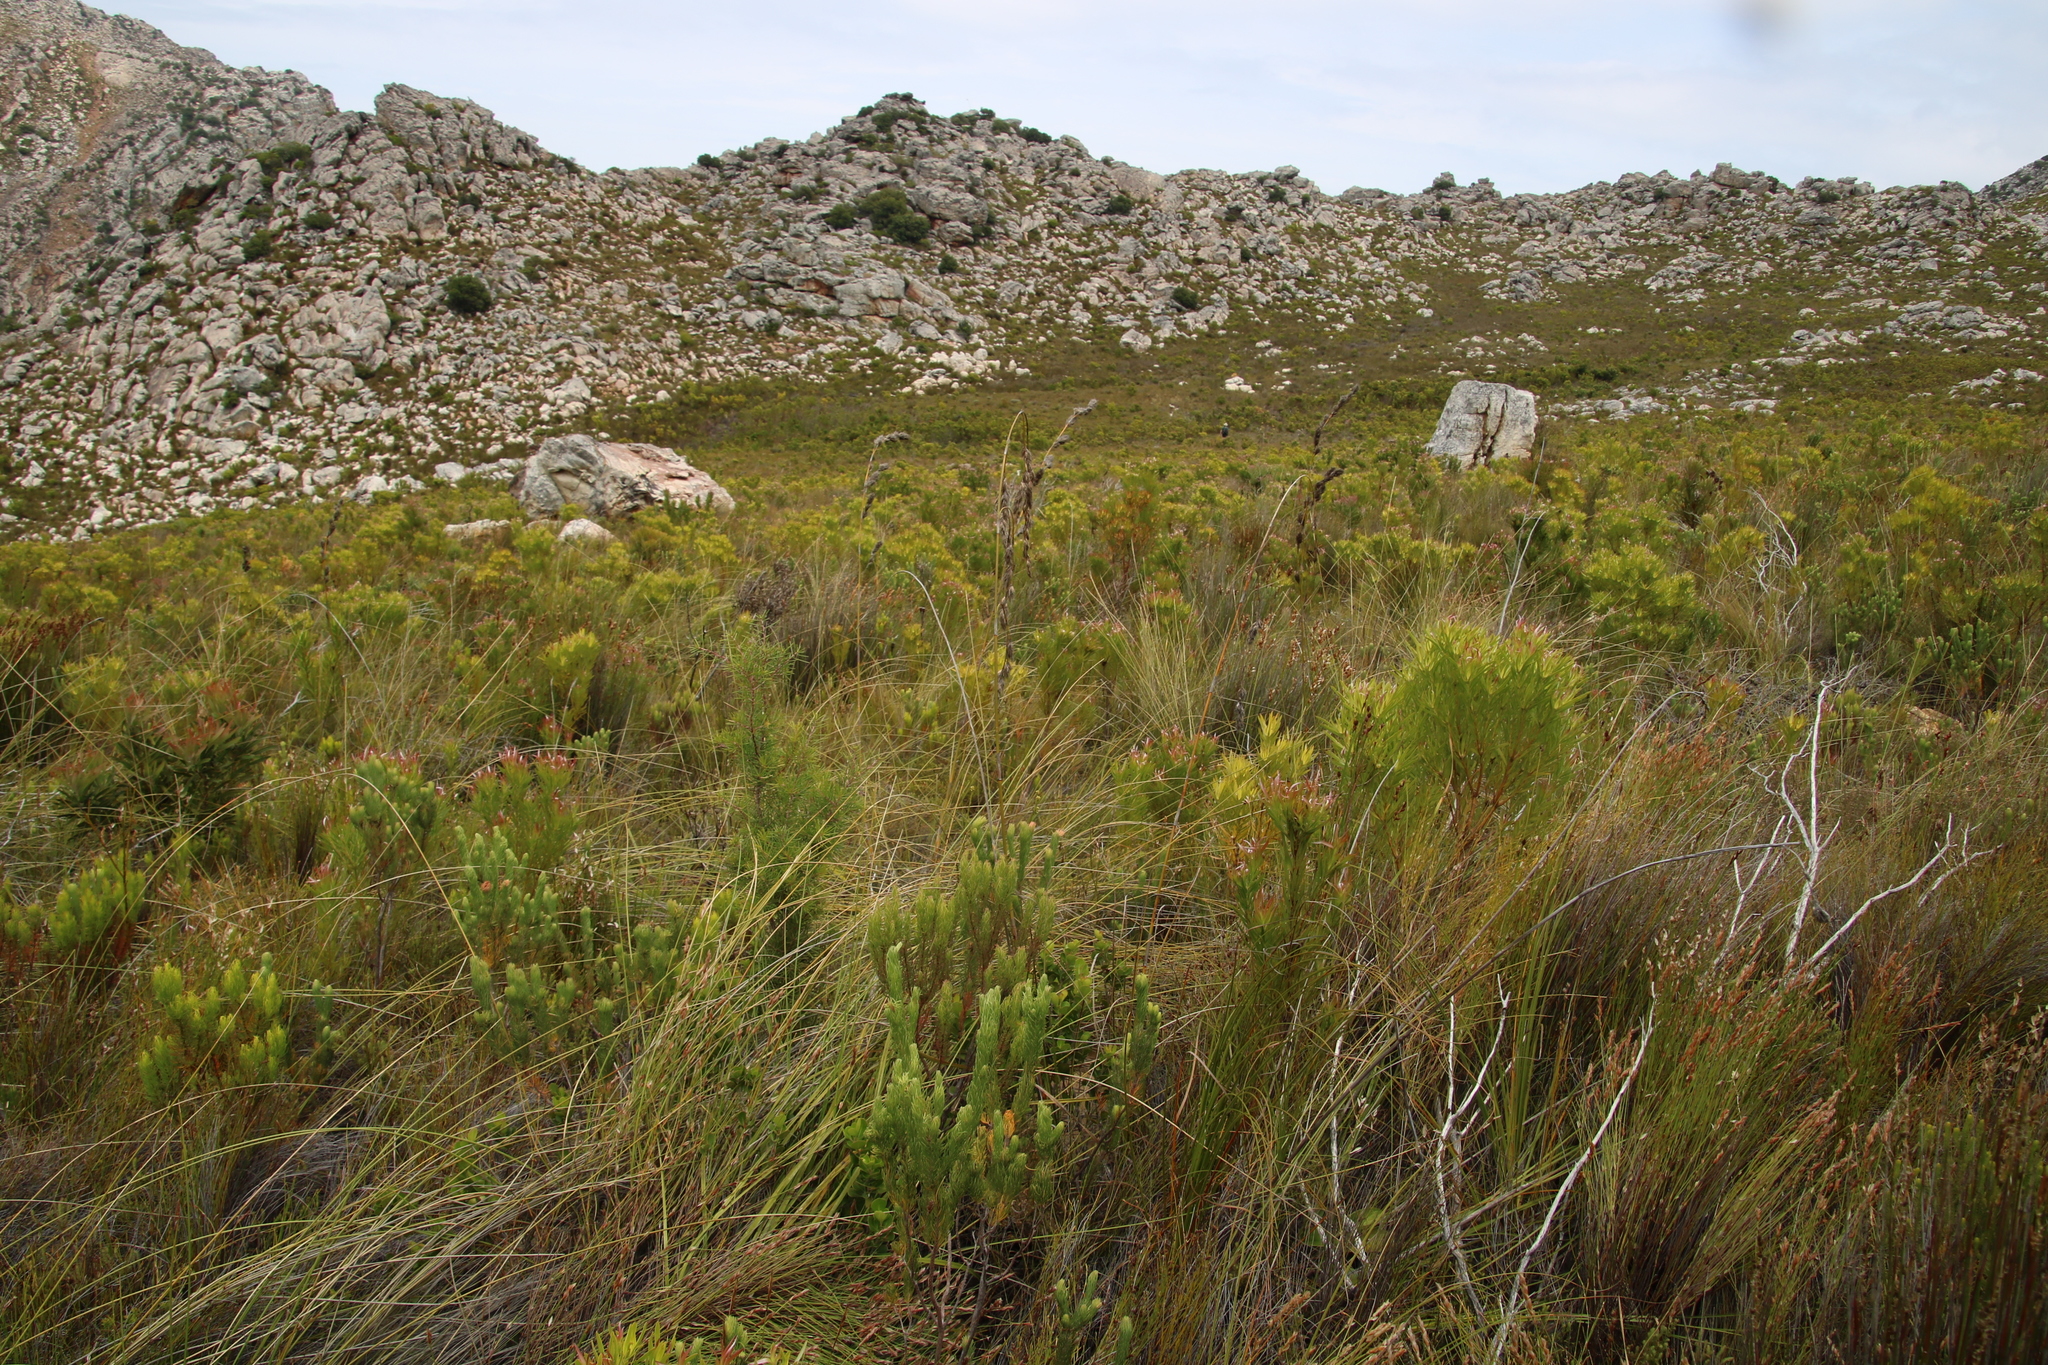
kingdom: Plantae
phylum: Tracheophyta
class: Liliopsida
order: Poales
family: Cyperaceae
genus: Tetraria
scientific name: Tetraria bromoides
